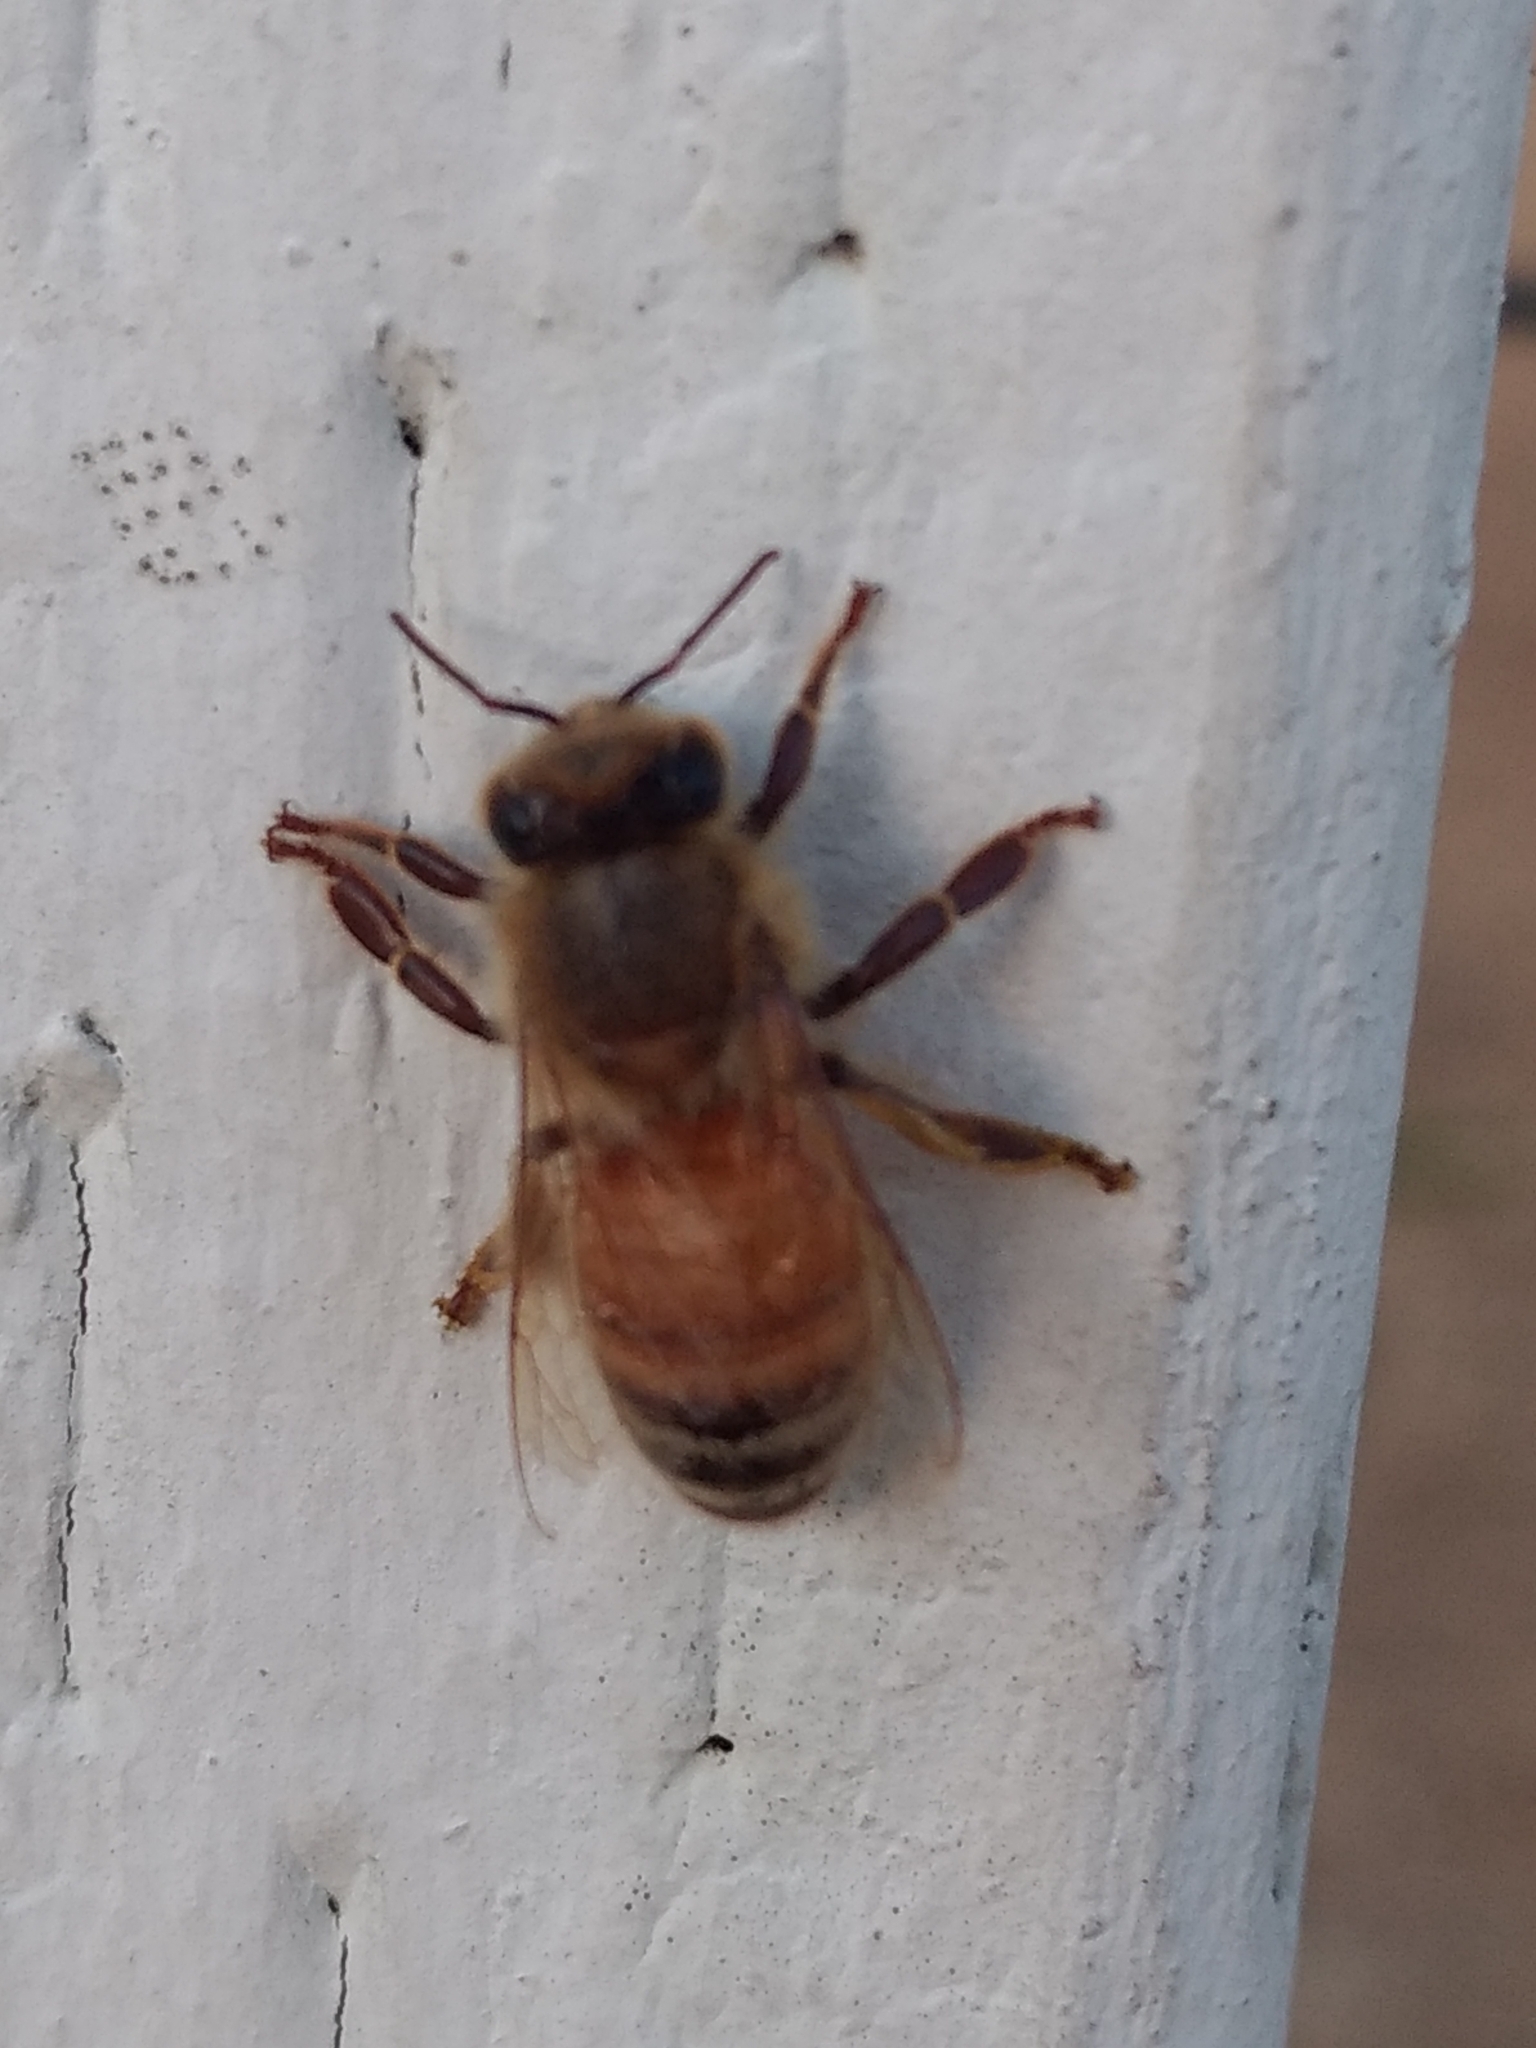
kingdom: Animalia
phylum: Arthropoda
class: Insecta
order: Hymenoptera
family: Apidae
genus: Apis
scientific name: Apis mellifera
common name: Honey bee
